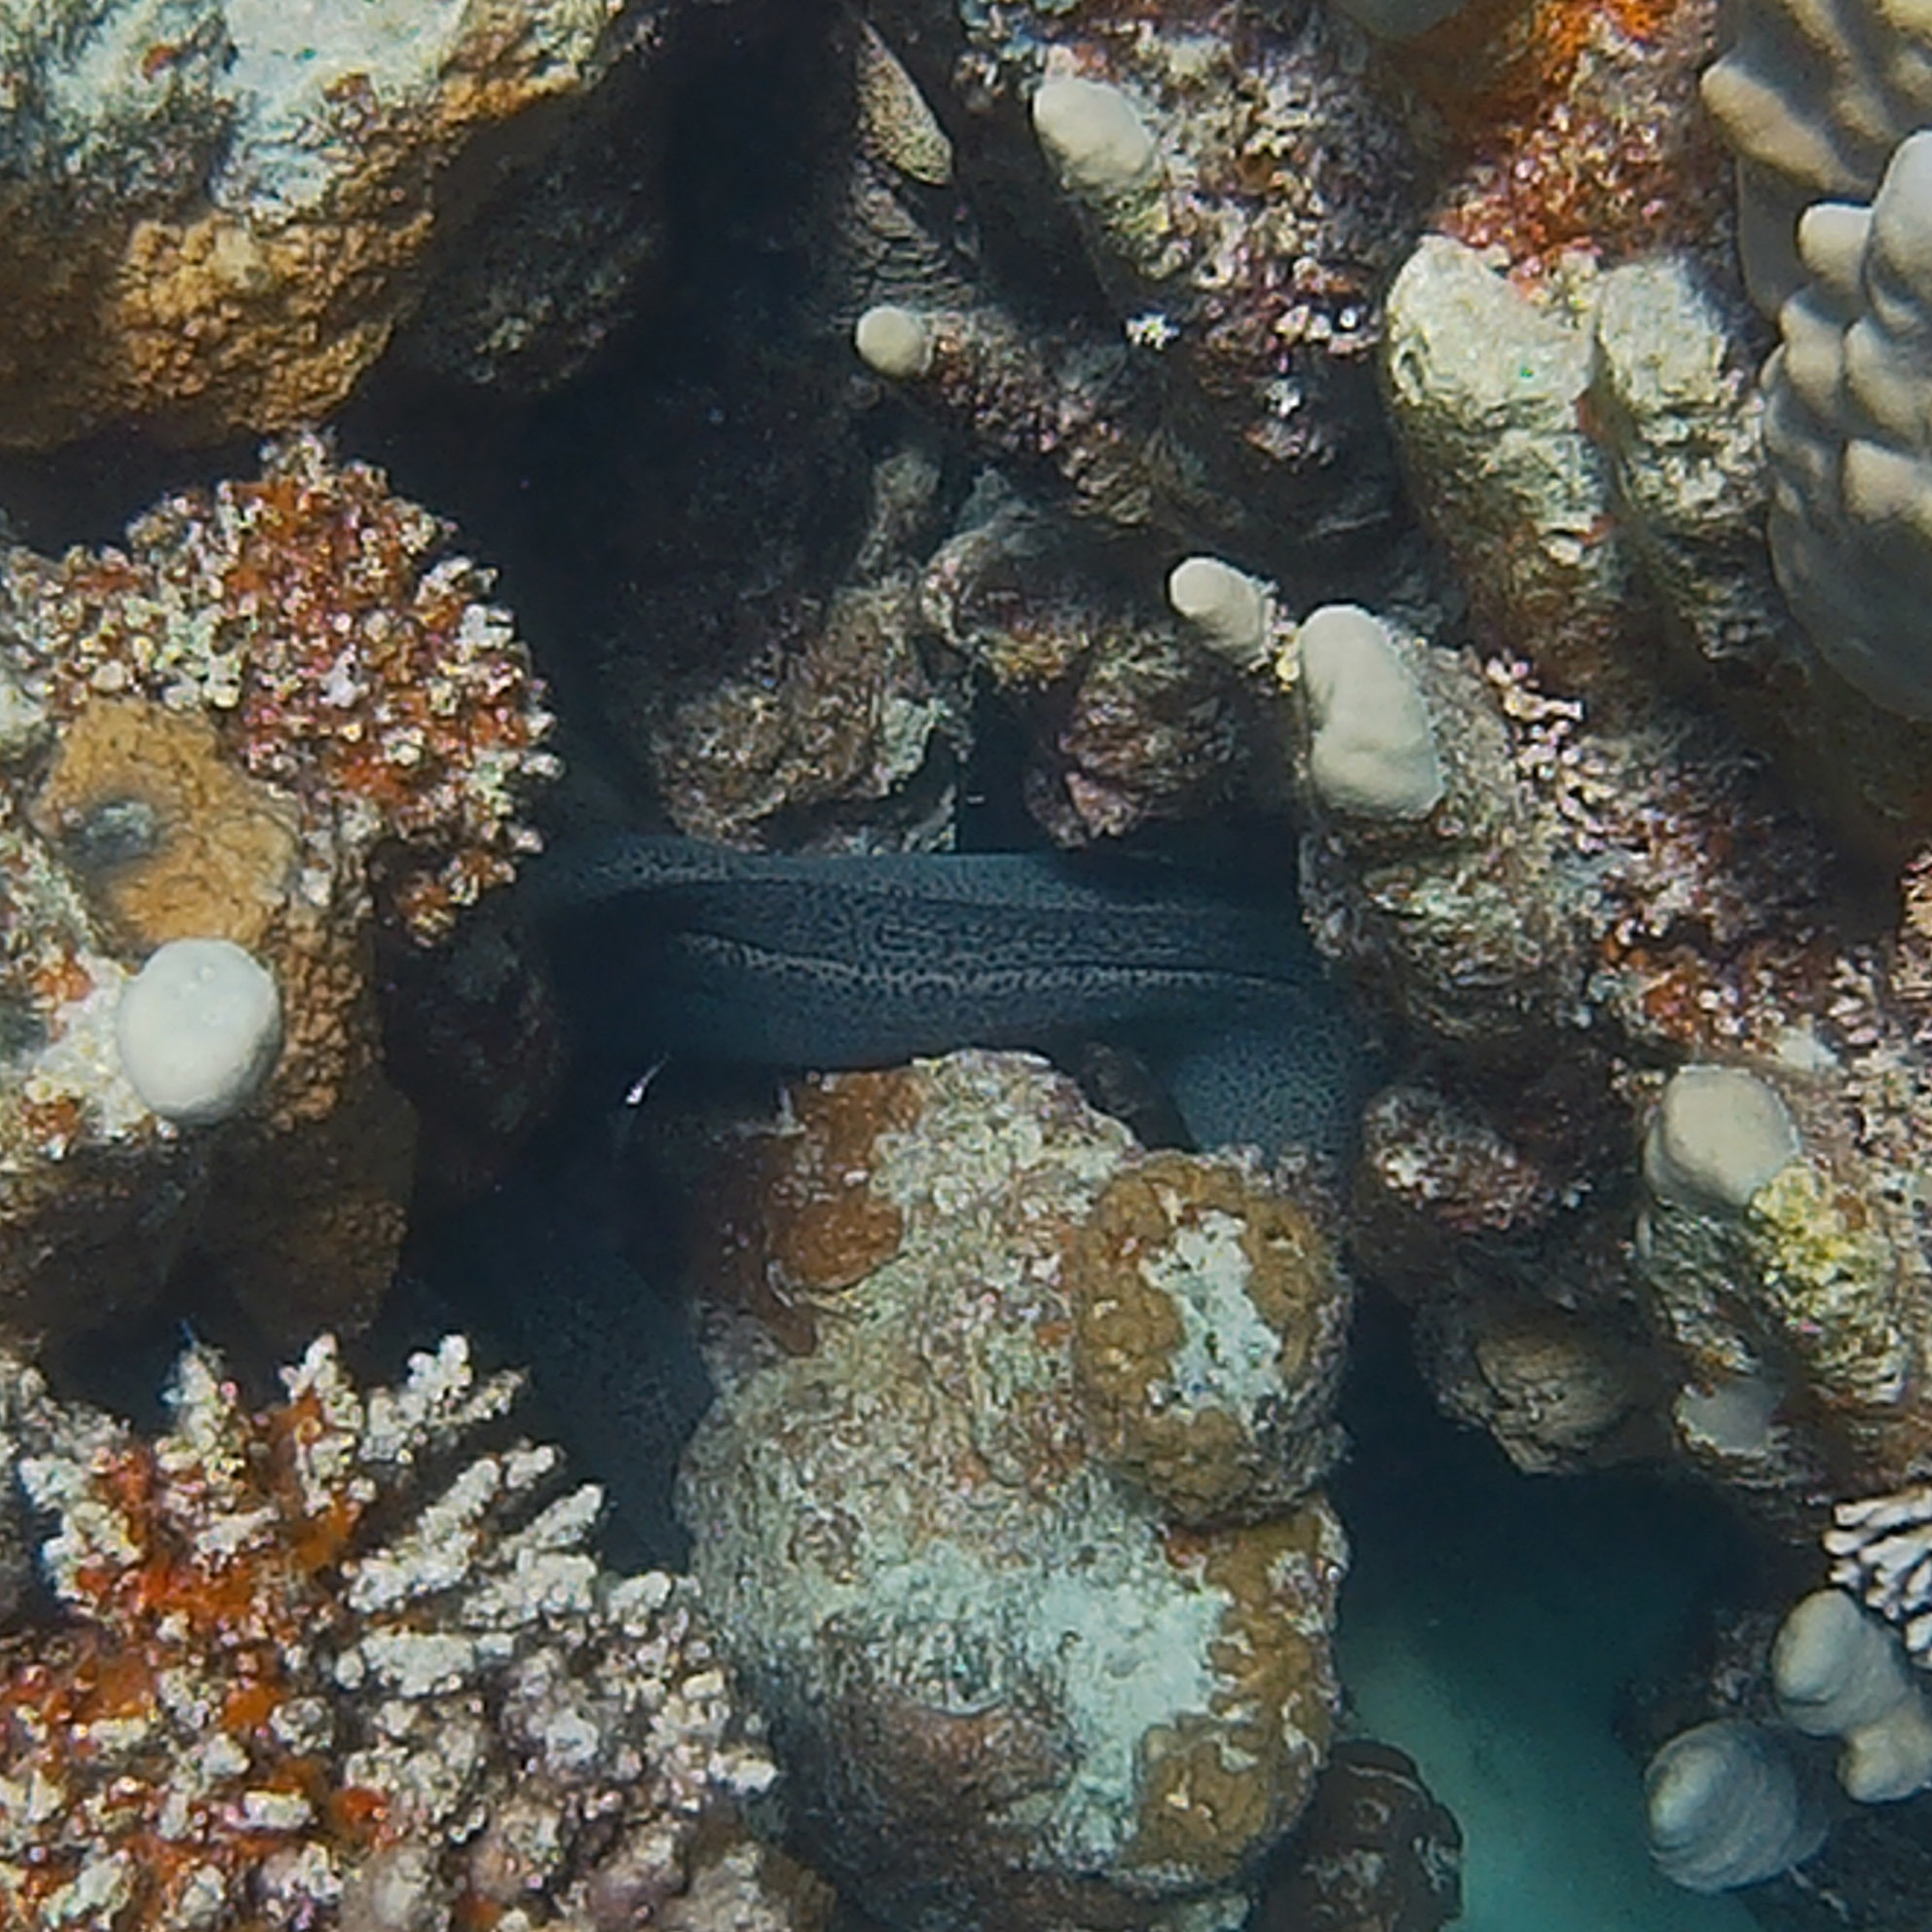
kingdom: Animalia
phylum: Chordata
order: Anguilliformes
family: Muraenidae
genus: Gymnothorax
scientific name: Gymnothorax javanicus
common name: Giant moray
